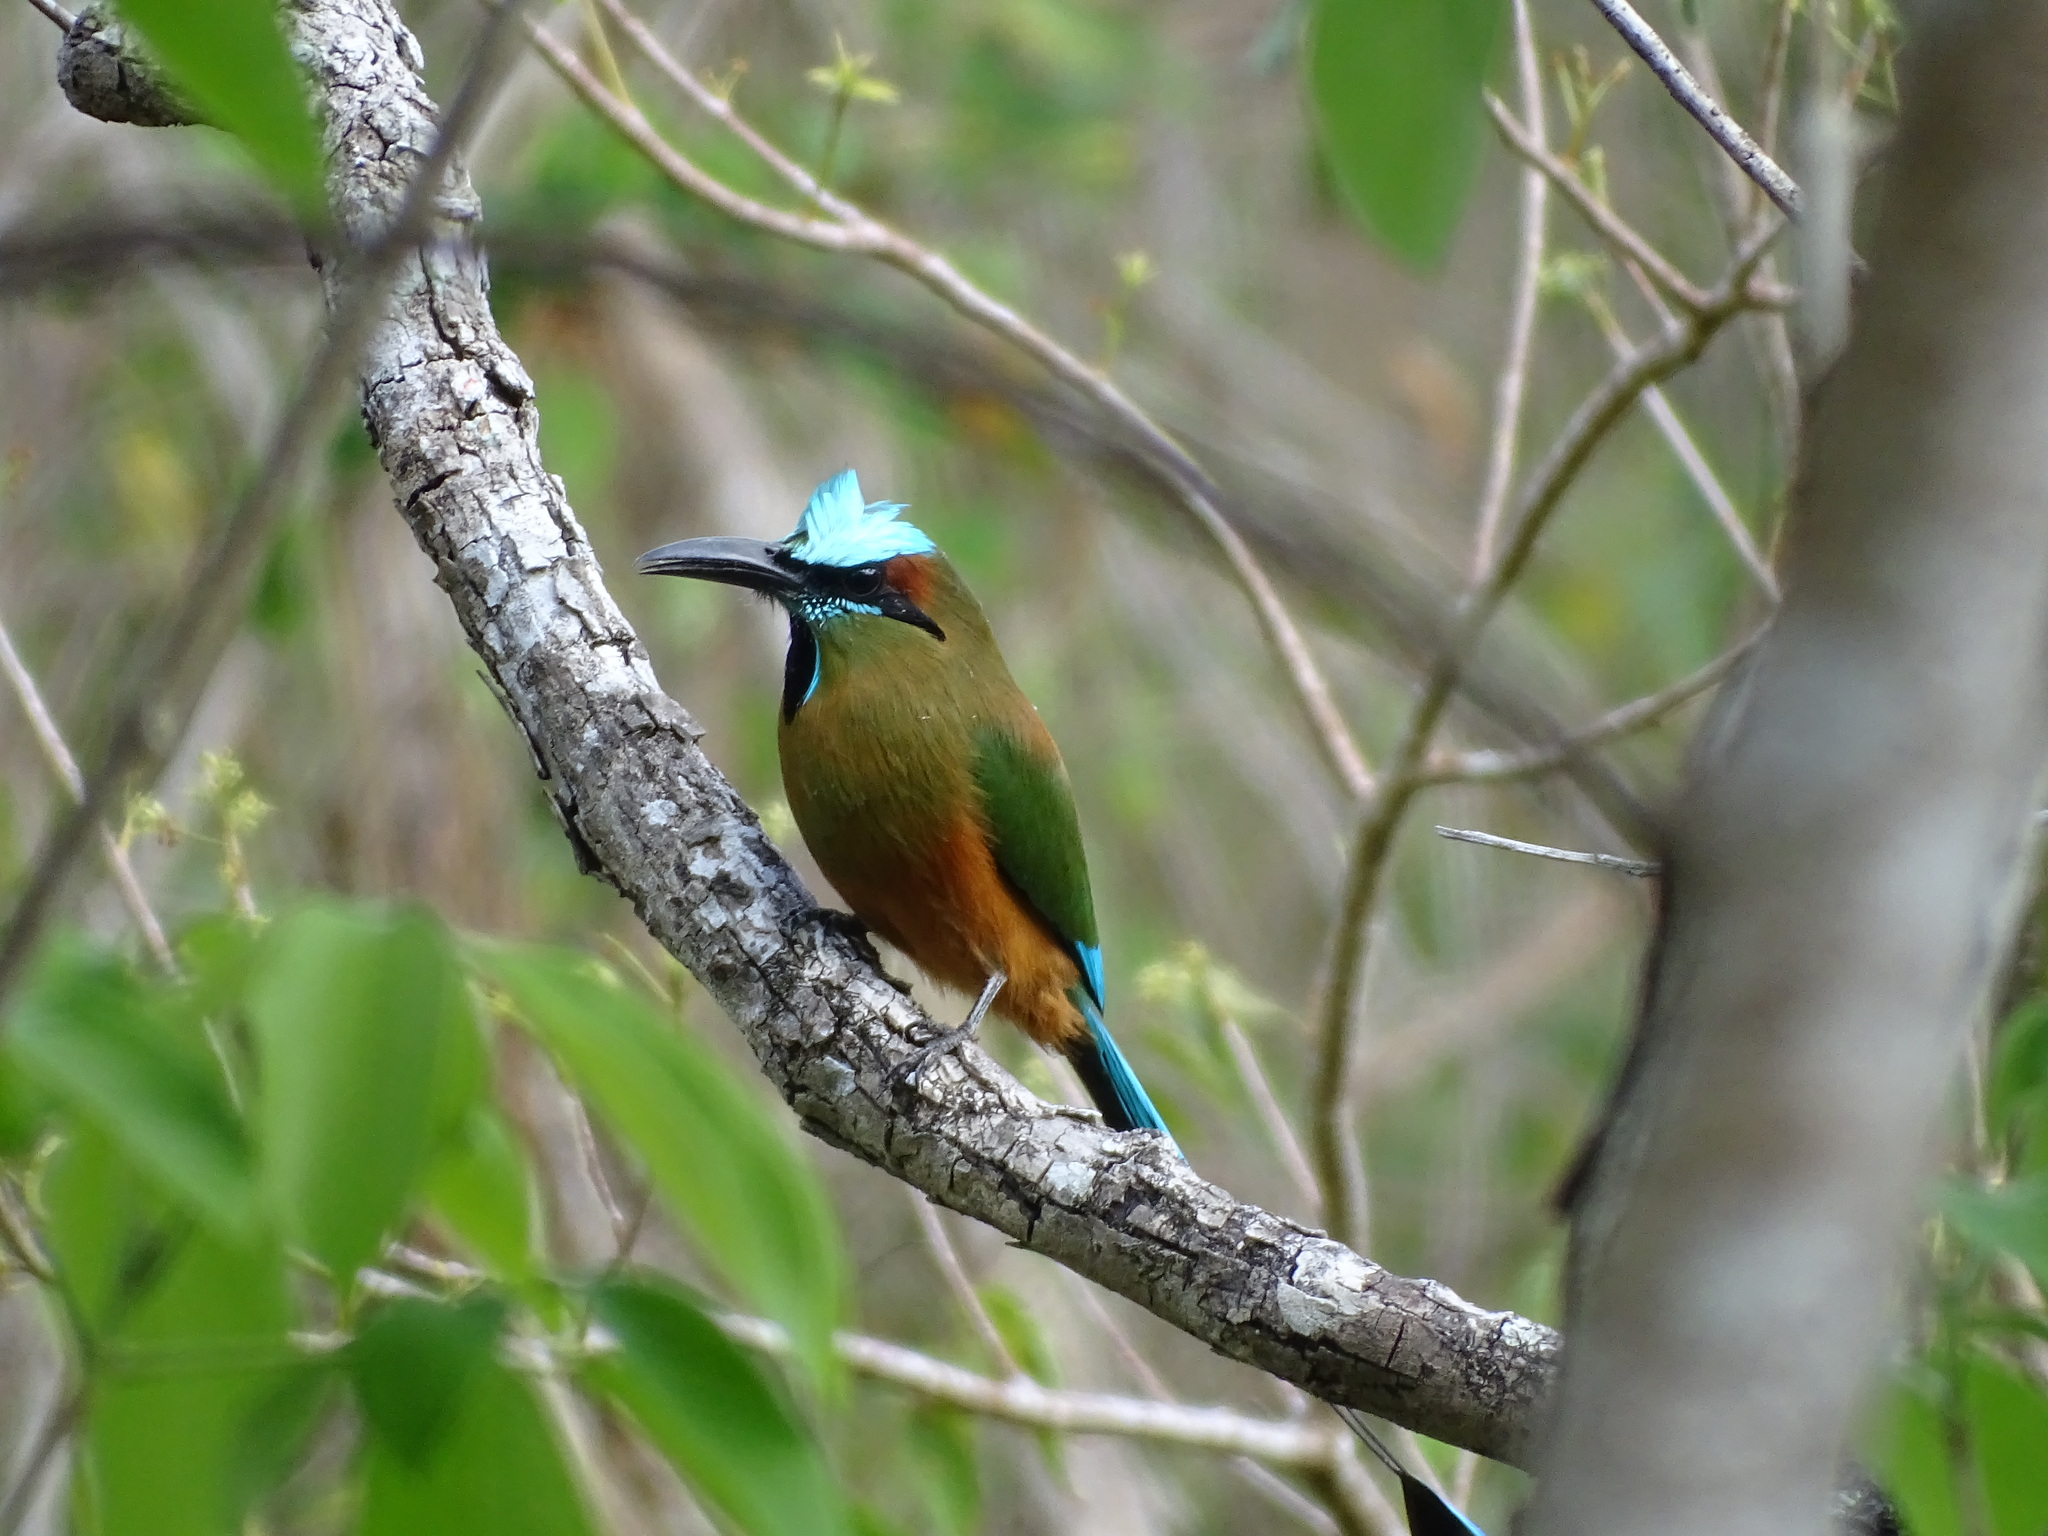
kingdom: Animalia
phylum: Chordata
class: Aves
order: Coraciiformes
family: Momotidae
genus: Eumomota
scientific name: Eumomota superciliosa
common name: Turquoise-browed motmot
